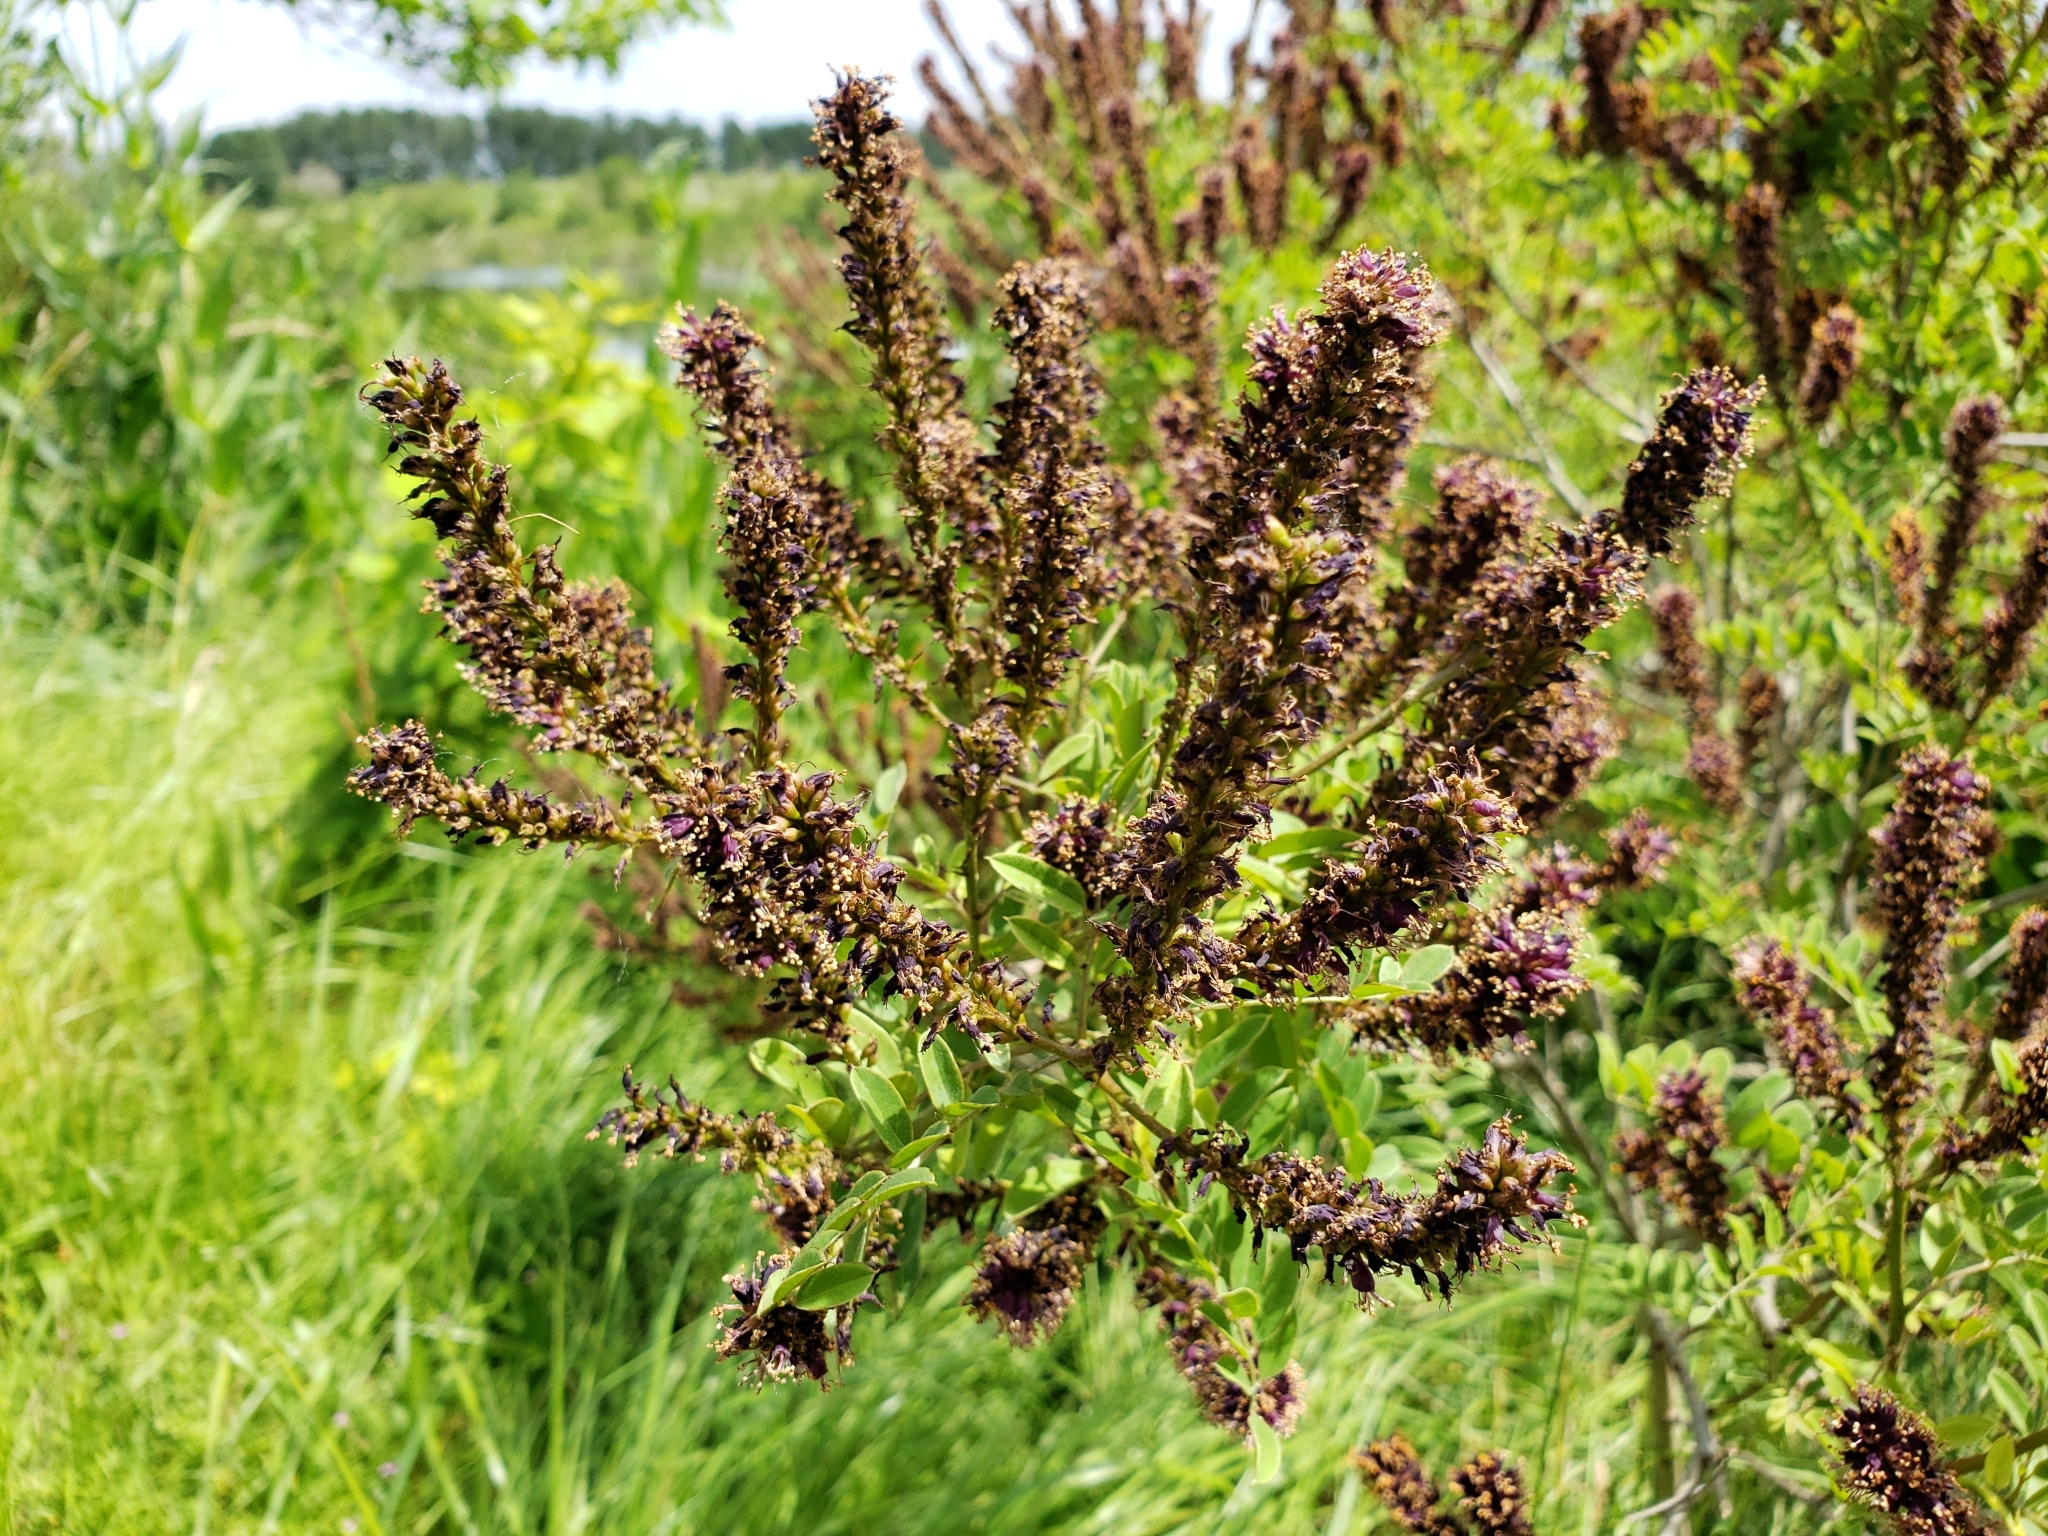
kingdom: Plantae
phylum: Tracheophyta
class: Magnoliopsida
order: Fabales
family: Fabaceae
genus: Amorpha
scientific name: Amorpha fruticosa
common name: False indigo
